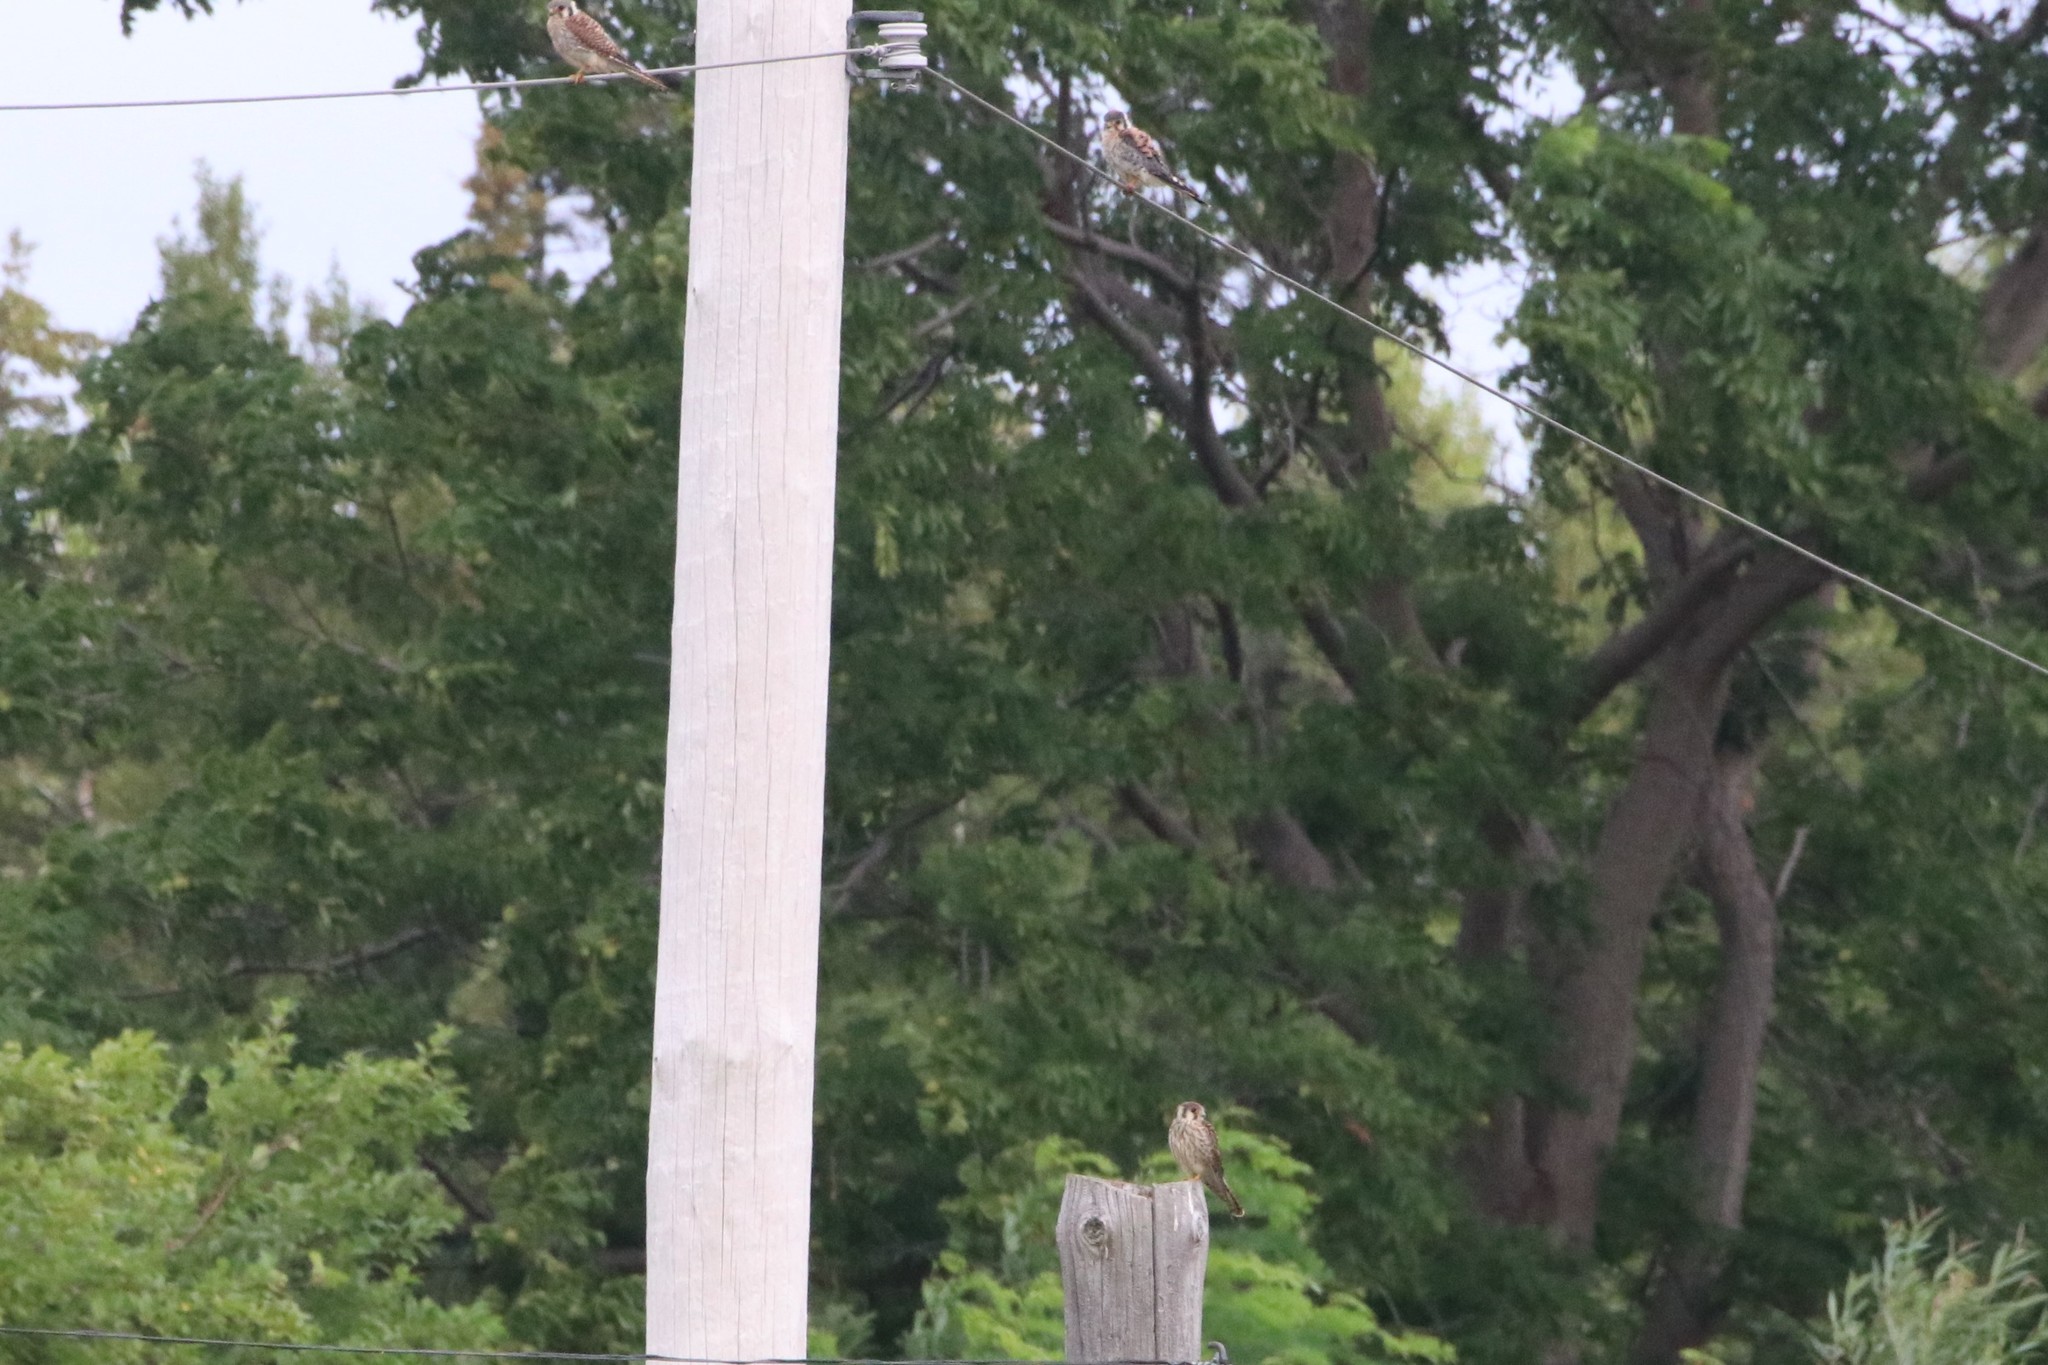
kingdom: Animalia
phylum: Chordata
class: Aves
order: Falconiformes
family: Falconidae
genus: Falco
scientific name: Falco sparverius
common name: American kestrel
